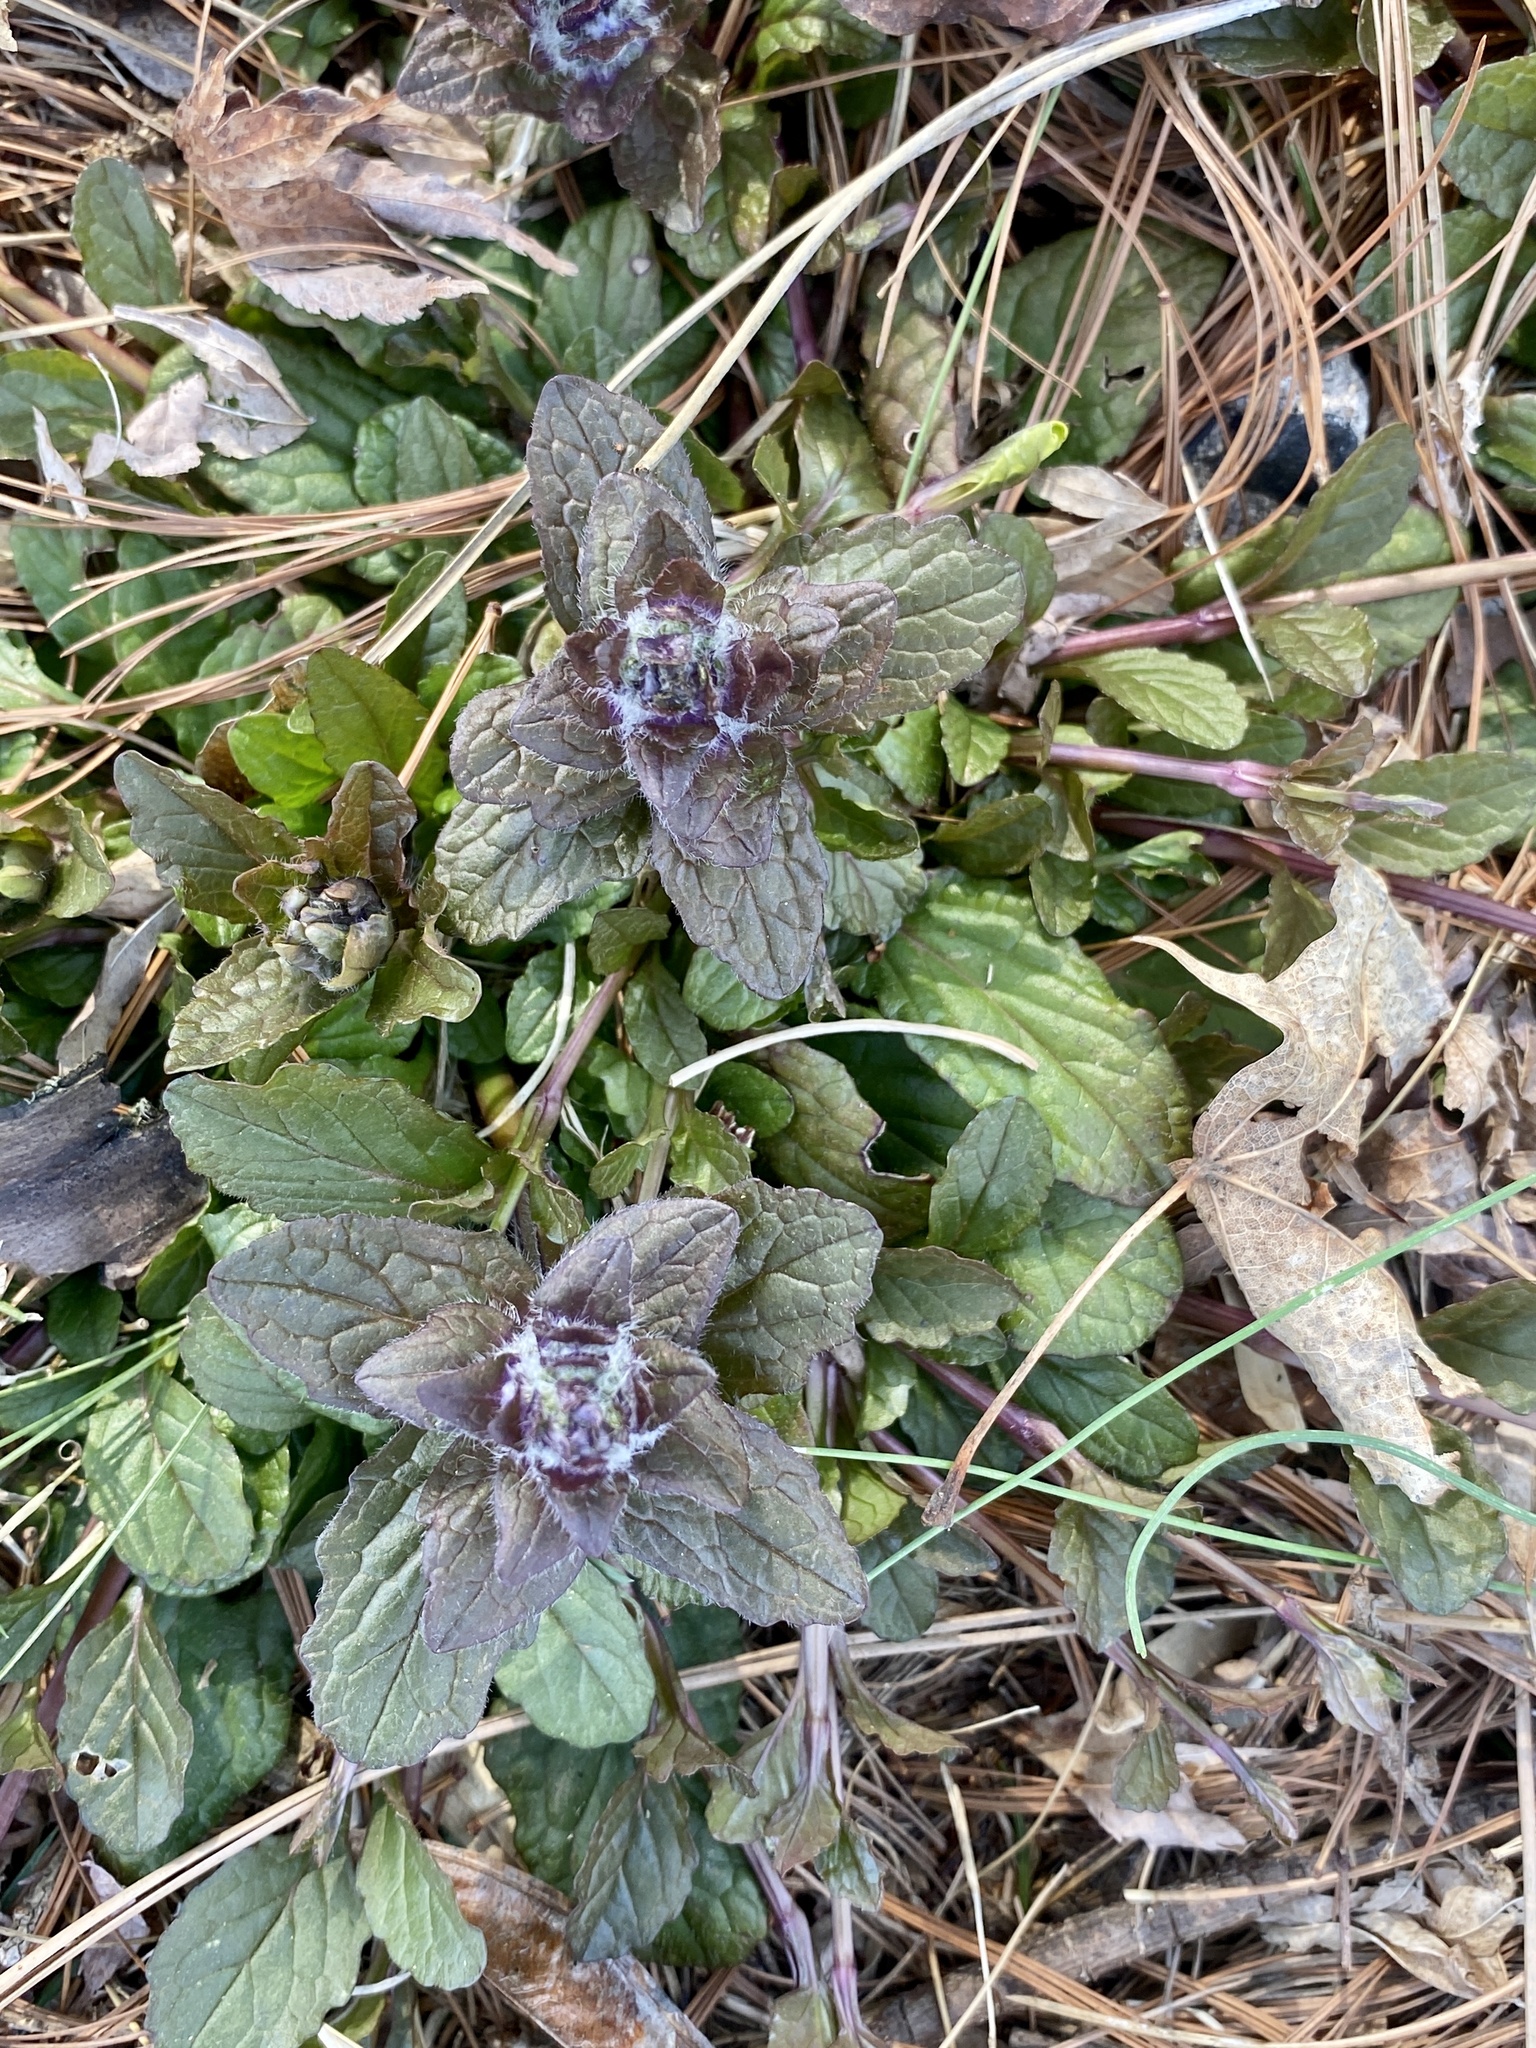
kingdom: Plantae
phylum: Tracheophyta
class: Magnoliopsida
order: Lamiales
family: Lamiaceae
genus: Ajuga
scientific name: Ajuga reptans
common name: Bugle
